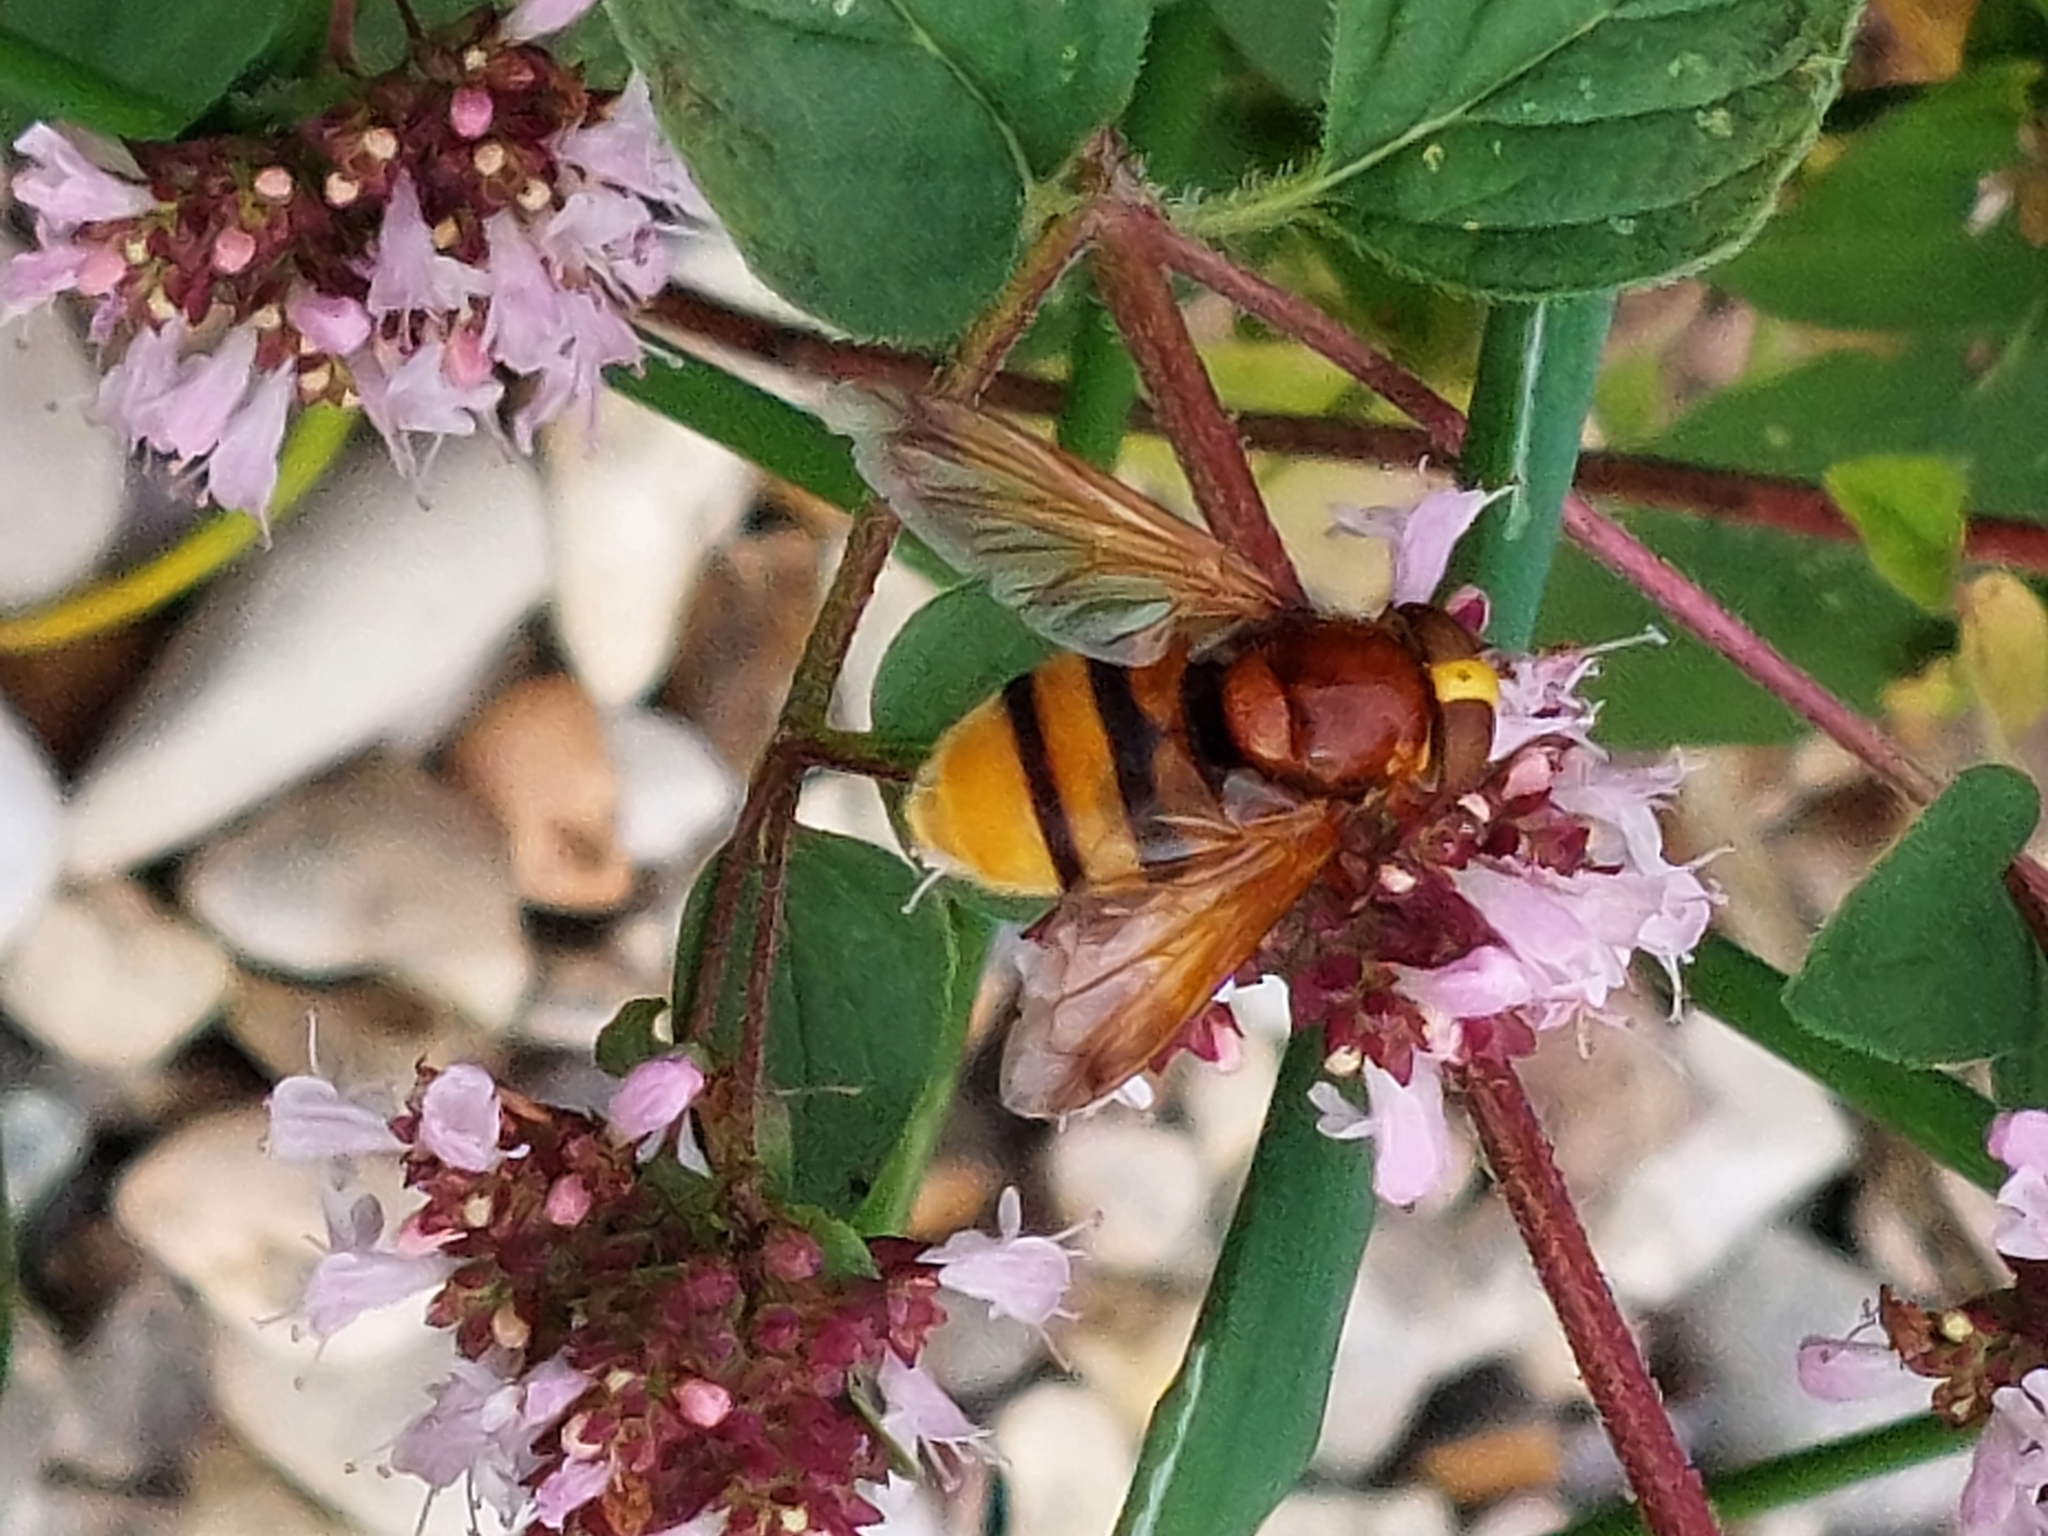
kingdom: Animalia
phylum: Arthropoda
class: Insecta
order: Diptera
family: Syrphidae
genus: Volucella
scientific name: Volucella zonaria
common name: Hornet hoverfly
